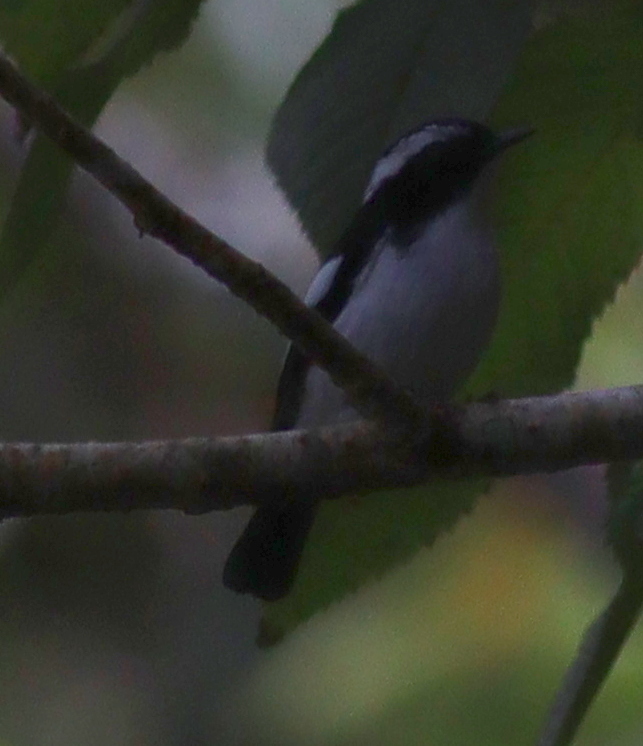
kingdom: Animalia
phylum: Chordata
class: Aves
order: Passeriformes
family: Muscicapidae
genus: Ficedula
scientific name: Ficedula westermanni
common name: Little pied flycatcher
